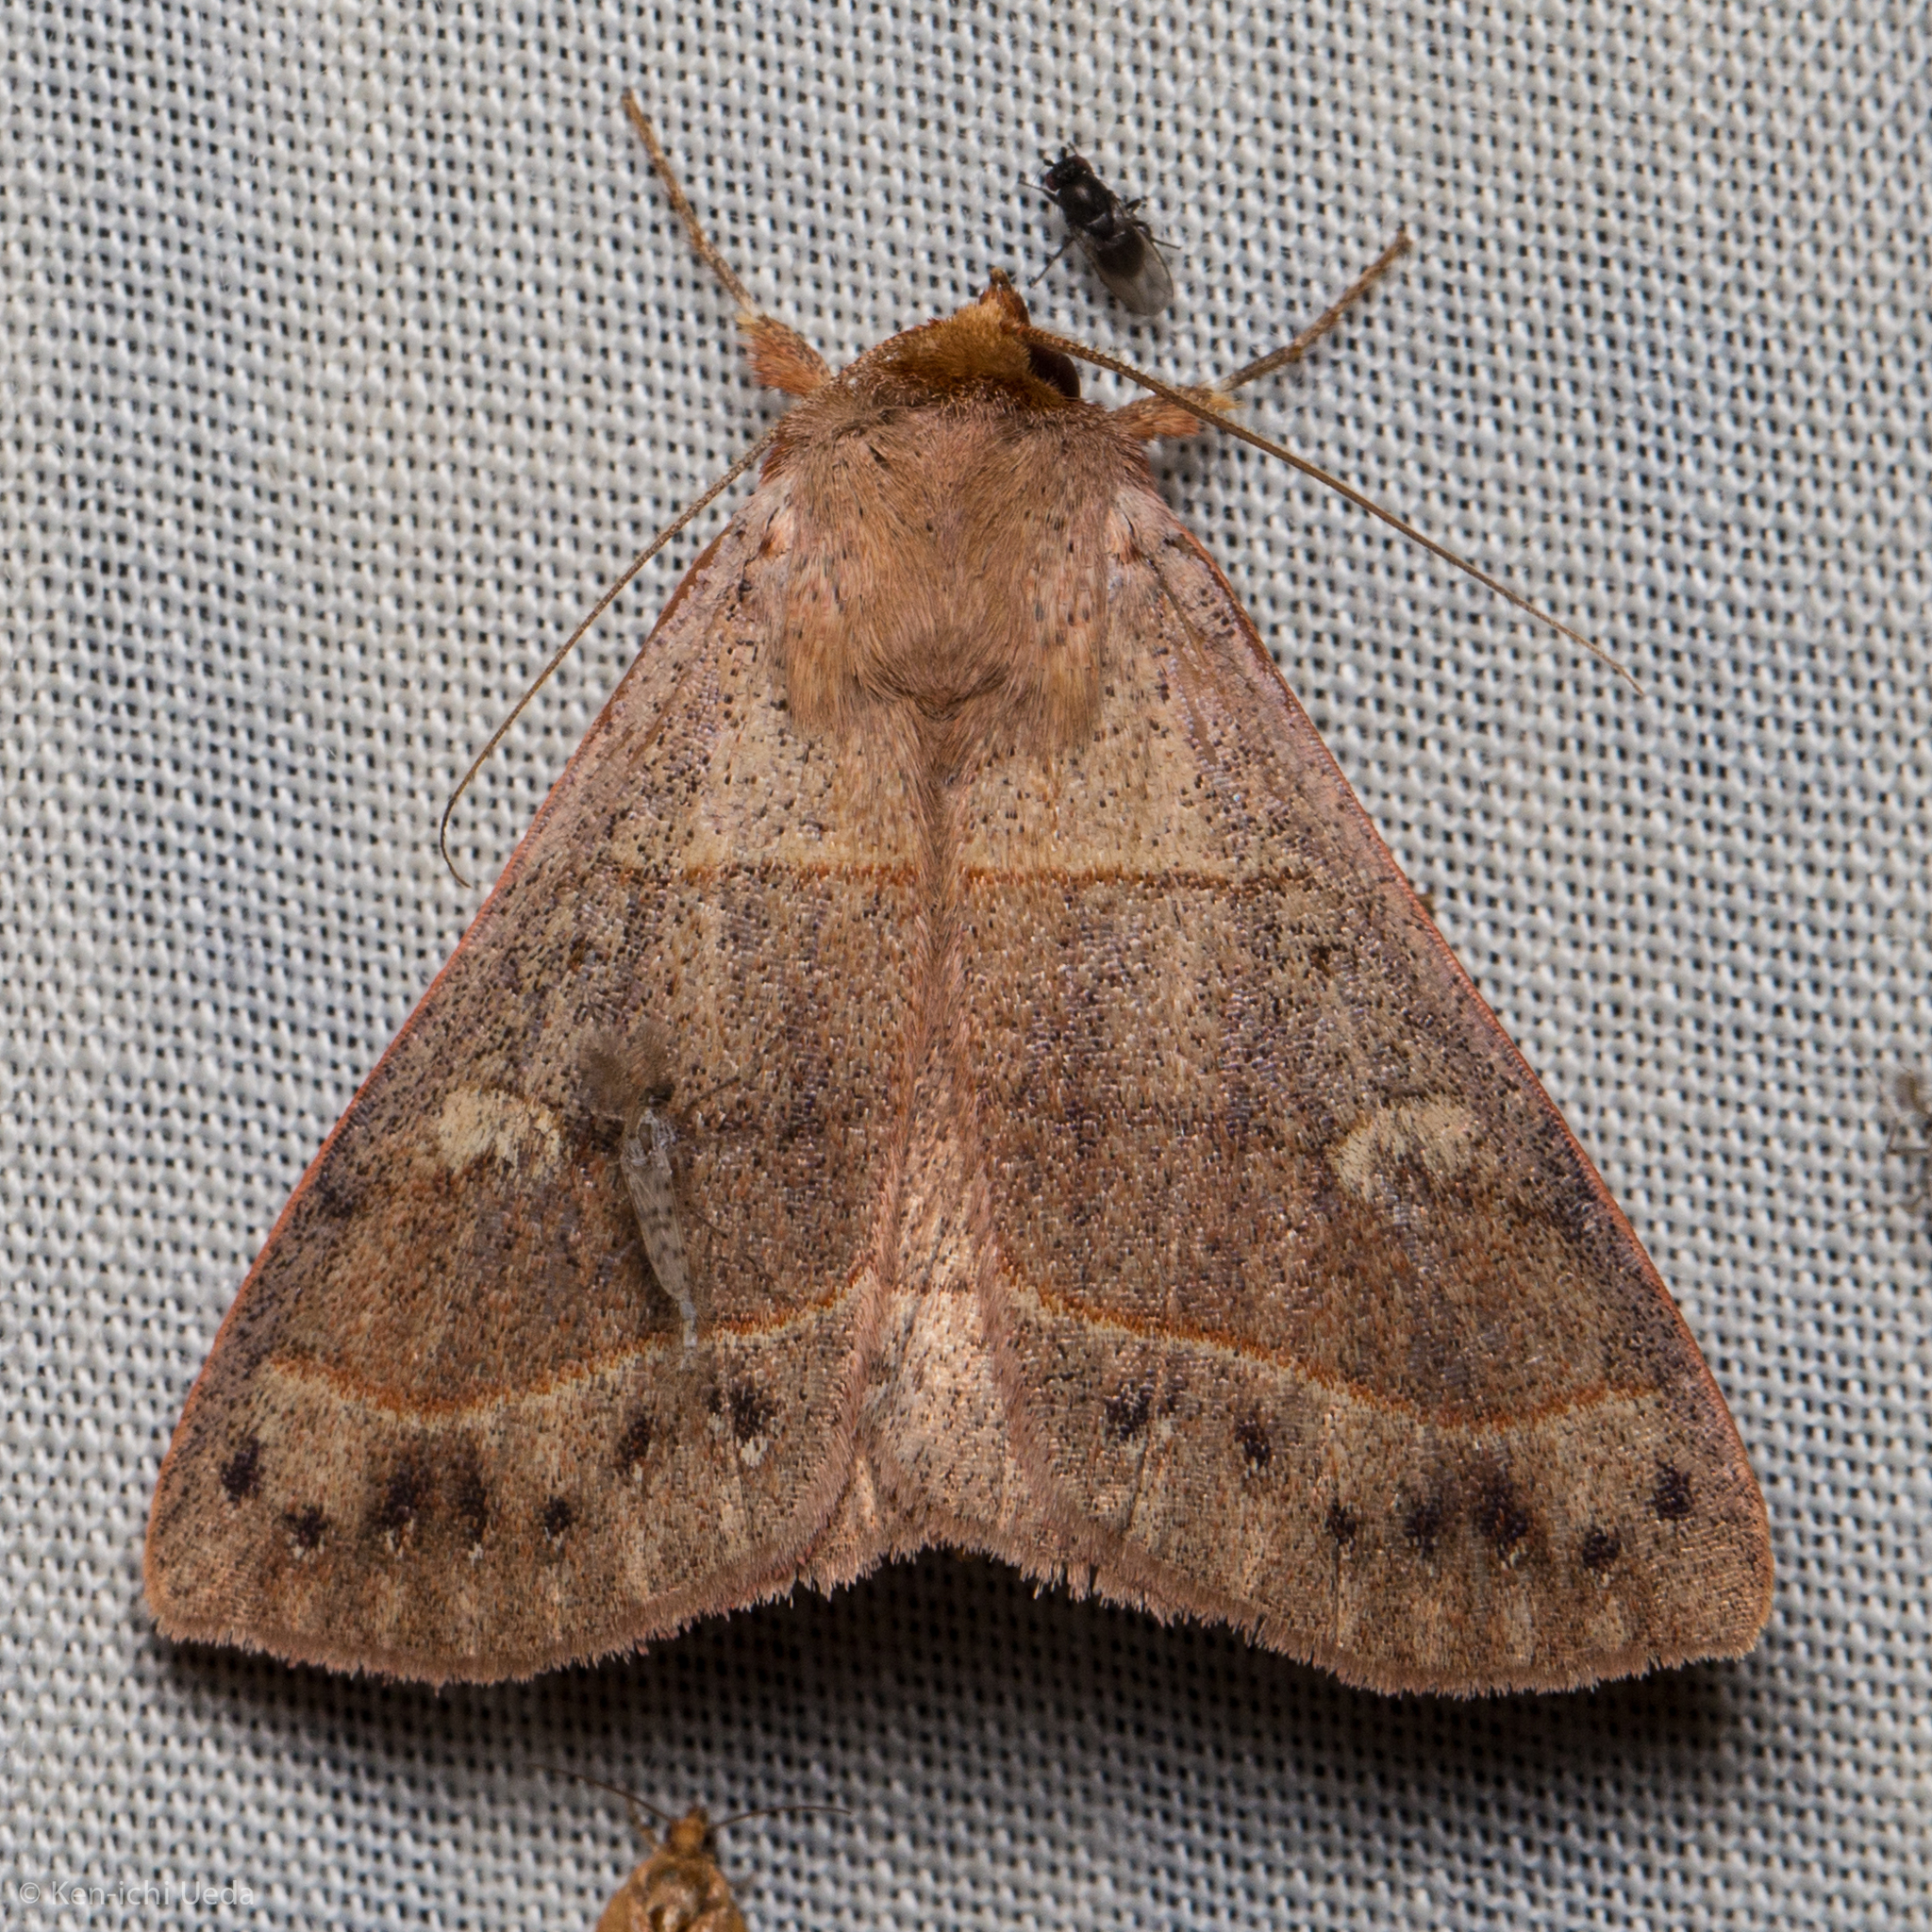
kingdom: Animalia
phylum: Arthropoda
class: Insecta
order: Lepidoptera
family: Erebidae
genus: Panopoda
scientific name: Panopoda rufimargo
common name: Red-lined panopoda moth
